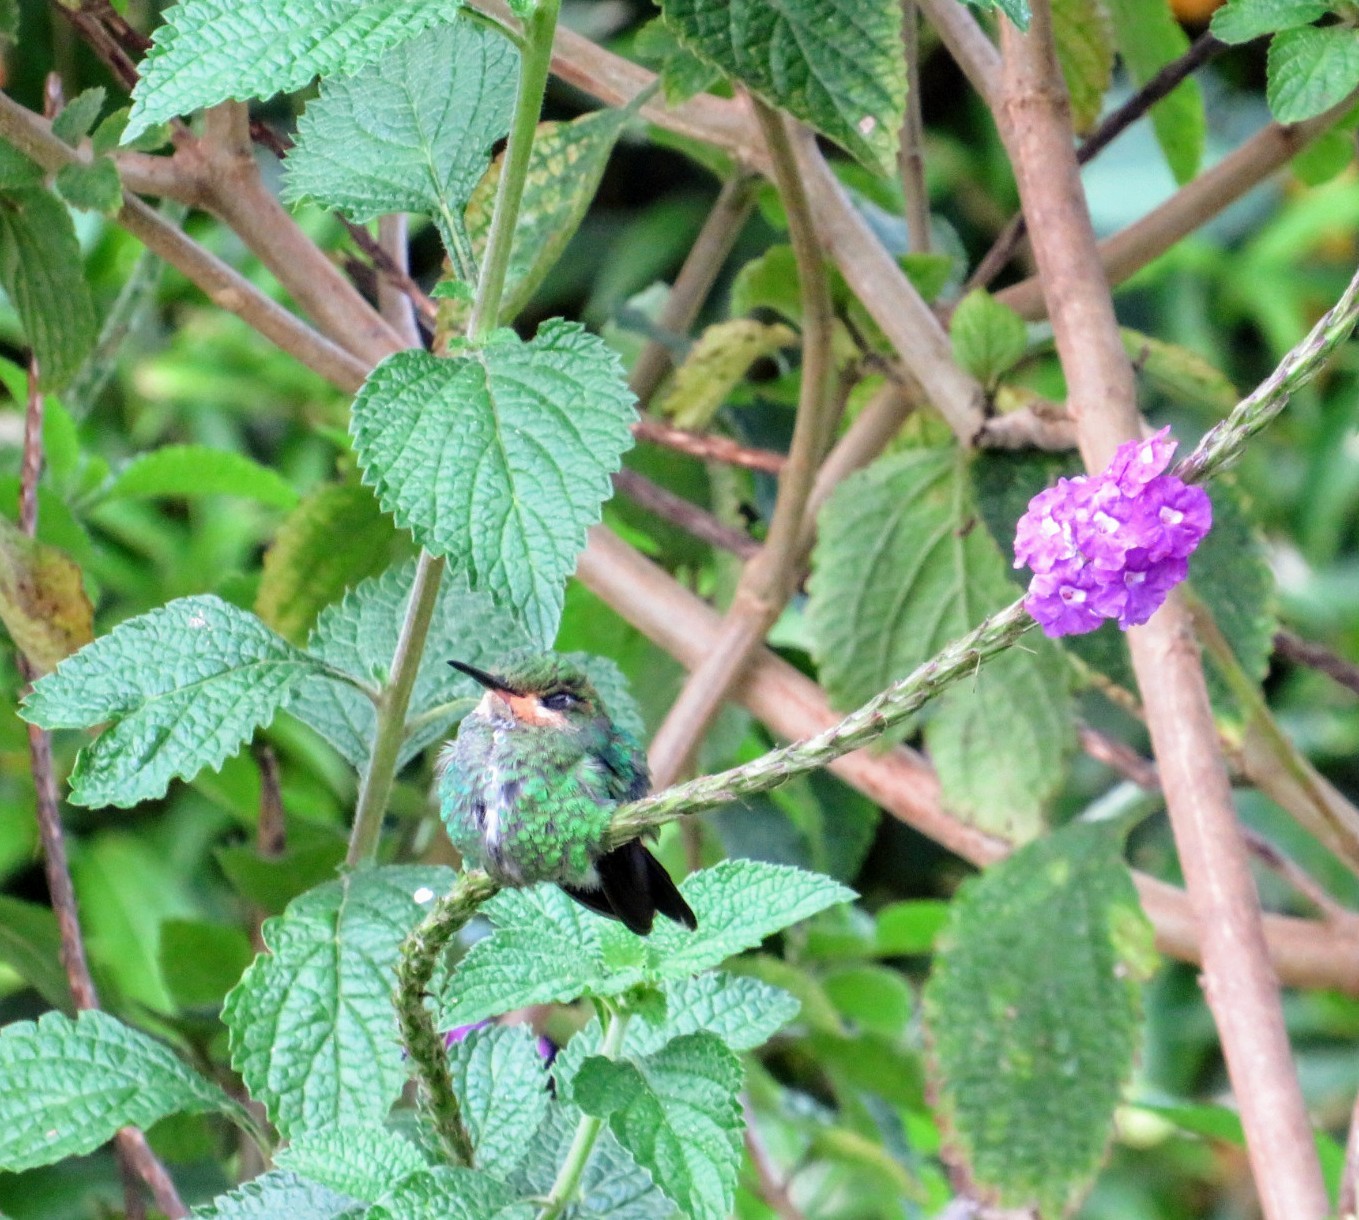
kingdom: Animalia
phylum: Chordata
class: Aves
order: Apodiformes
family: Trochilidae
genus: Heliodoxa
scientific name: Heliodoxa jacula
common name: Green-crowned brilliant
